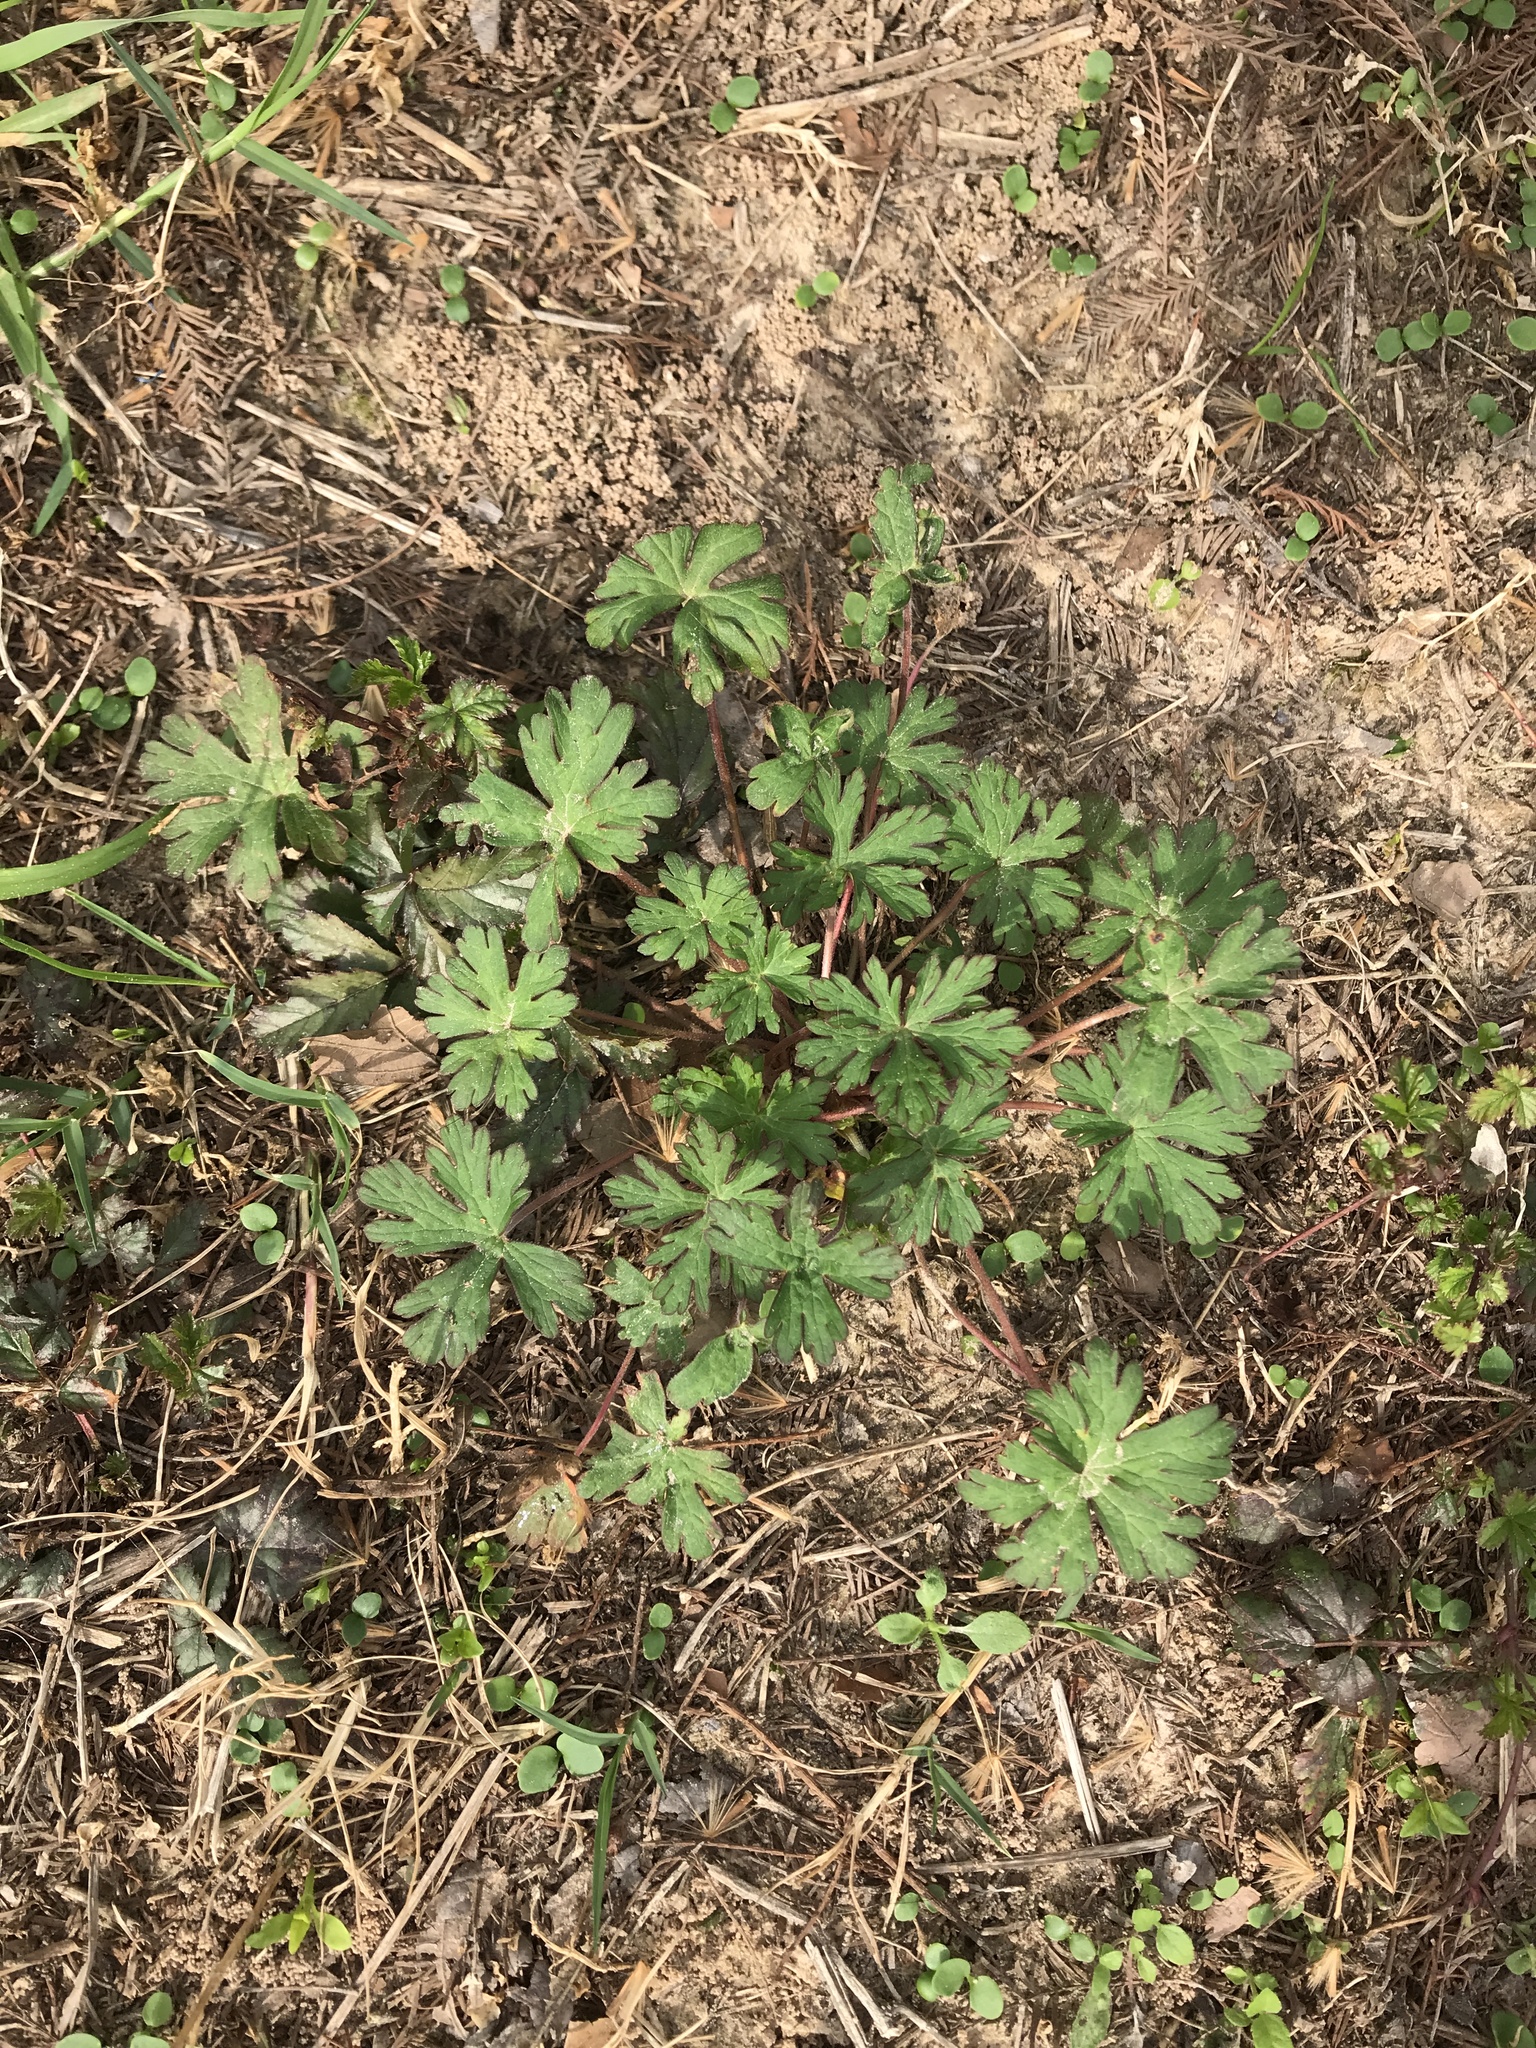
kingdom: Plantae
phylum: Tracheophyta
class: Magnoliopsida
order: Geraniales
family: Geraniaceae
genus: Geranium
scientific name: Geranium carolinianum
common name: Carolina crane's-bill
